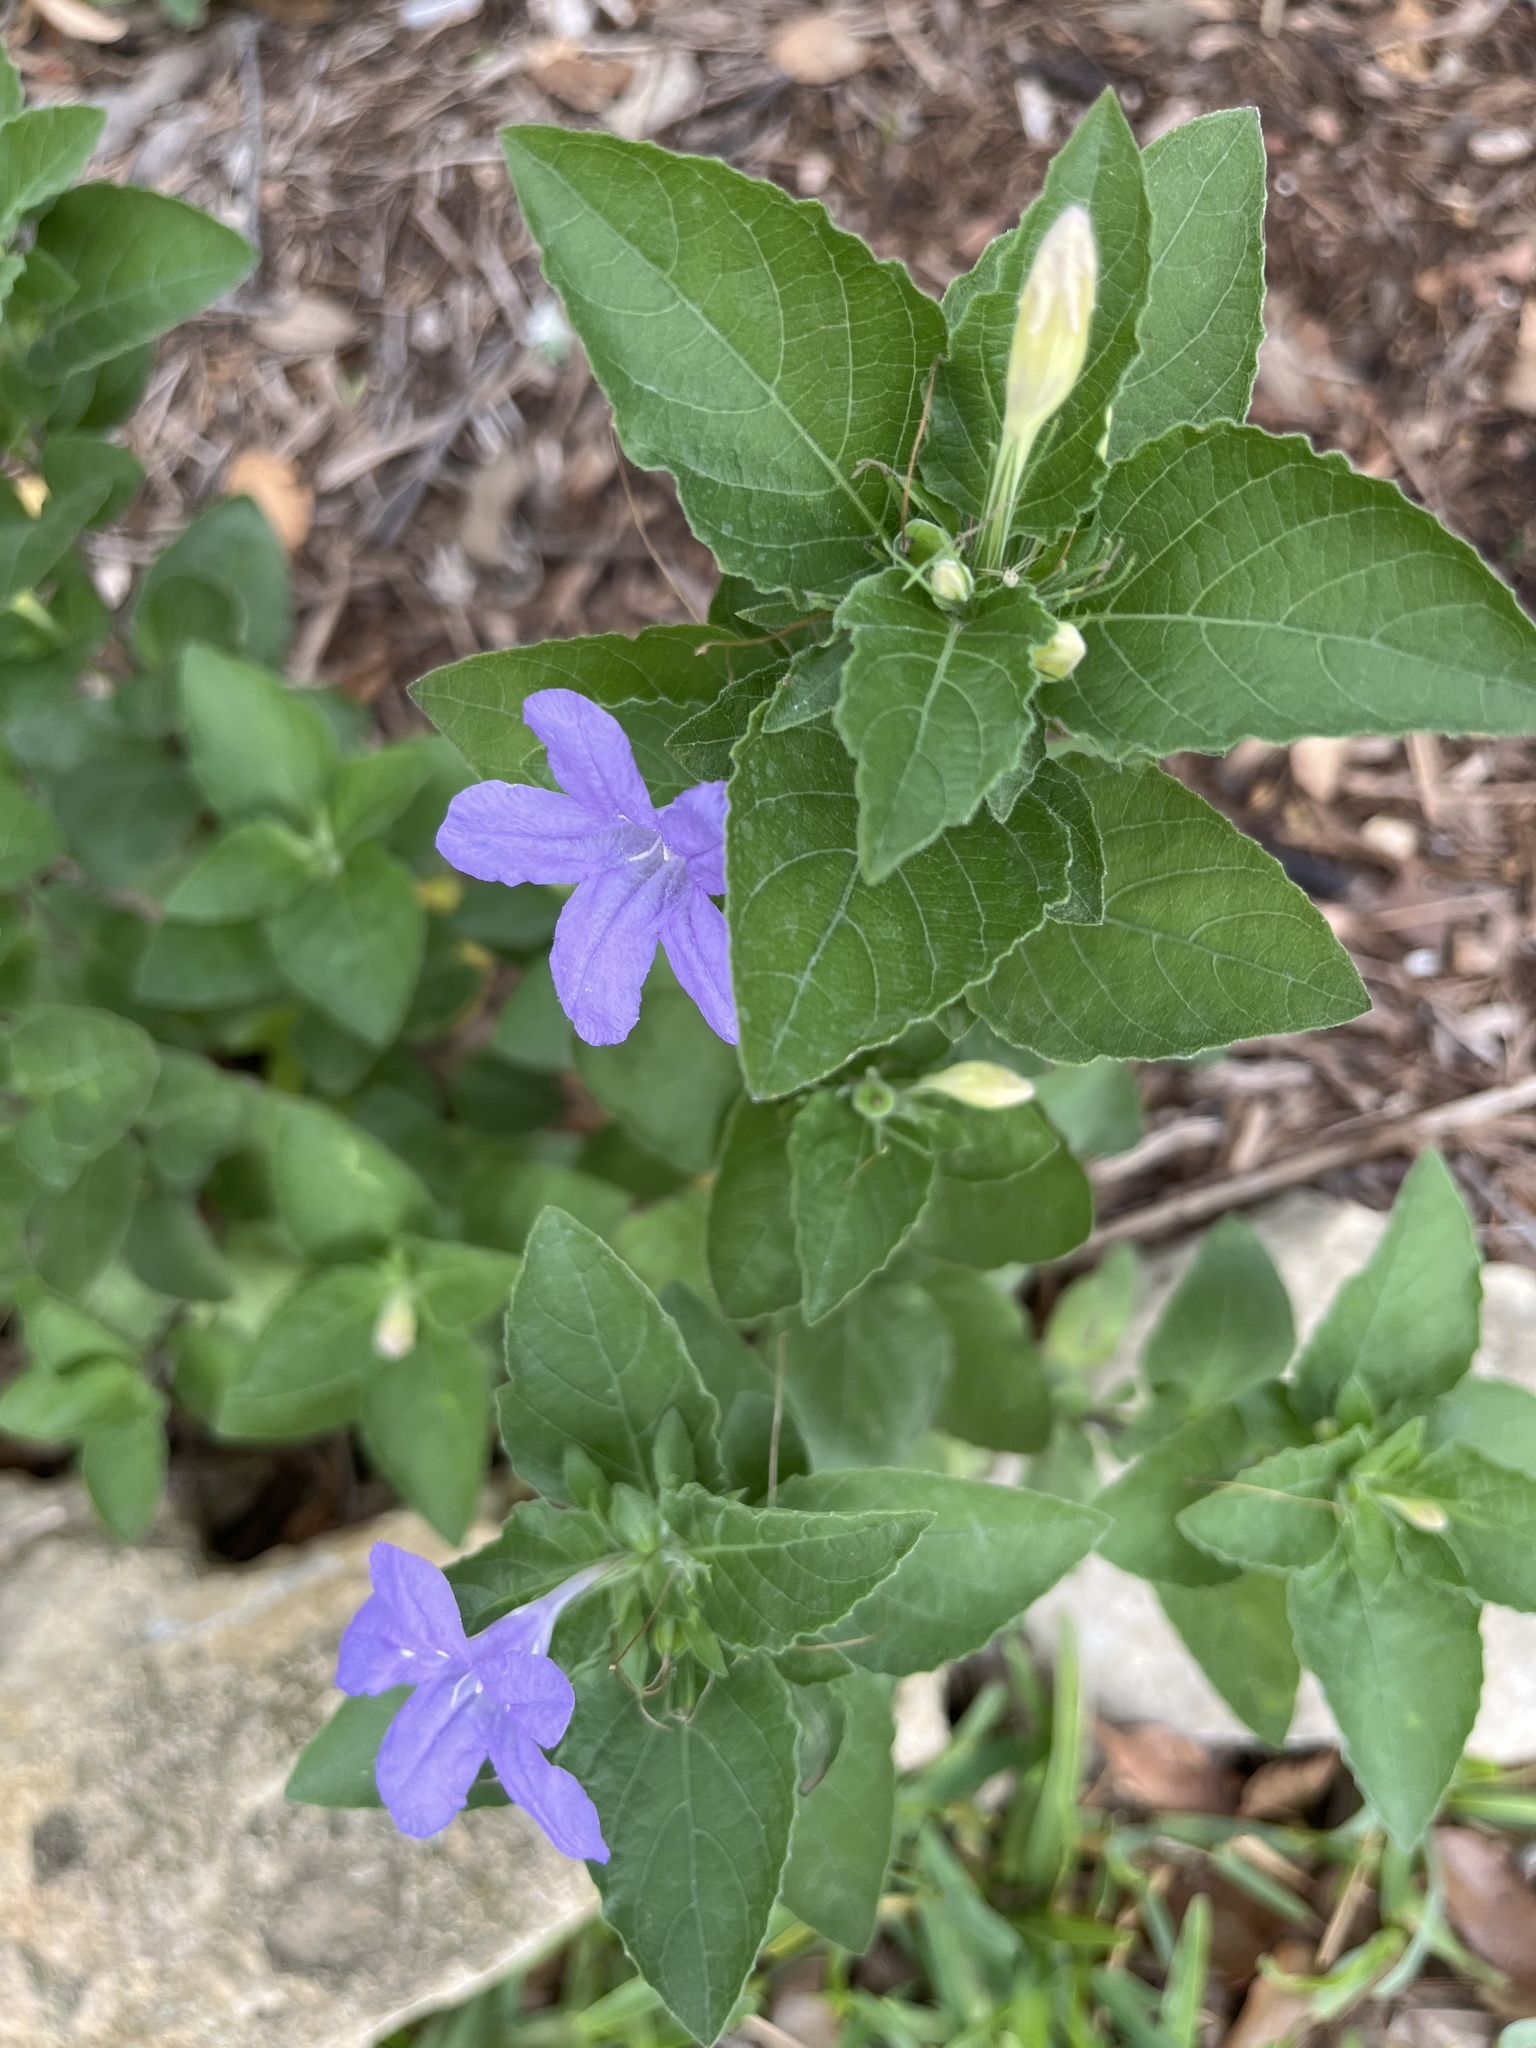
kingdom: Plantae
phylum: Tracheophyta
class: Magnoliopsida
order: Lamiales
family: Acanthaceae
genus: Ruellia
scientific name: Ruellia drummondiana
